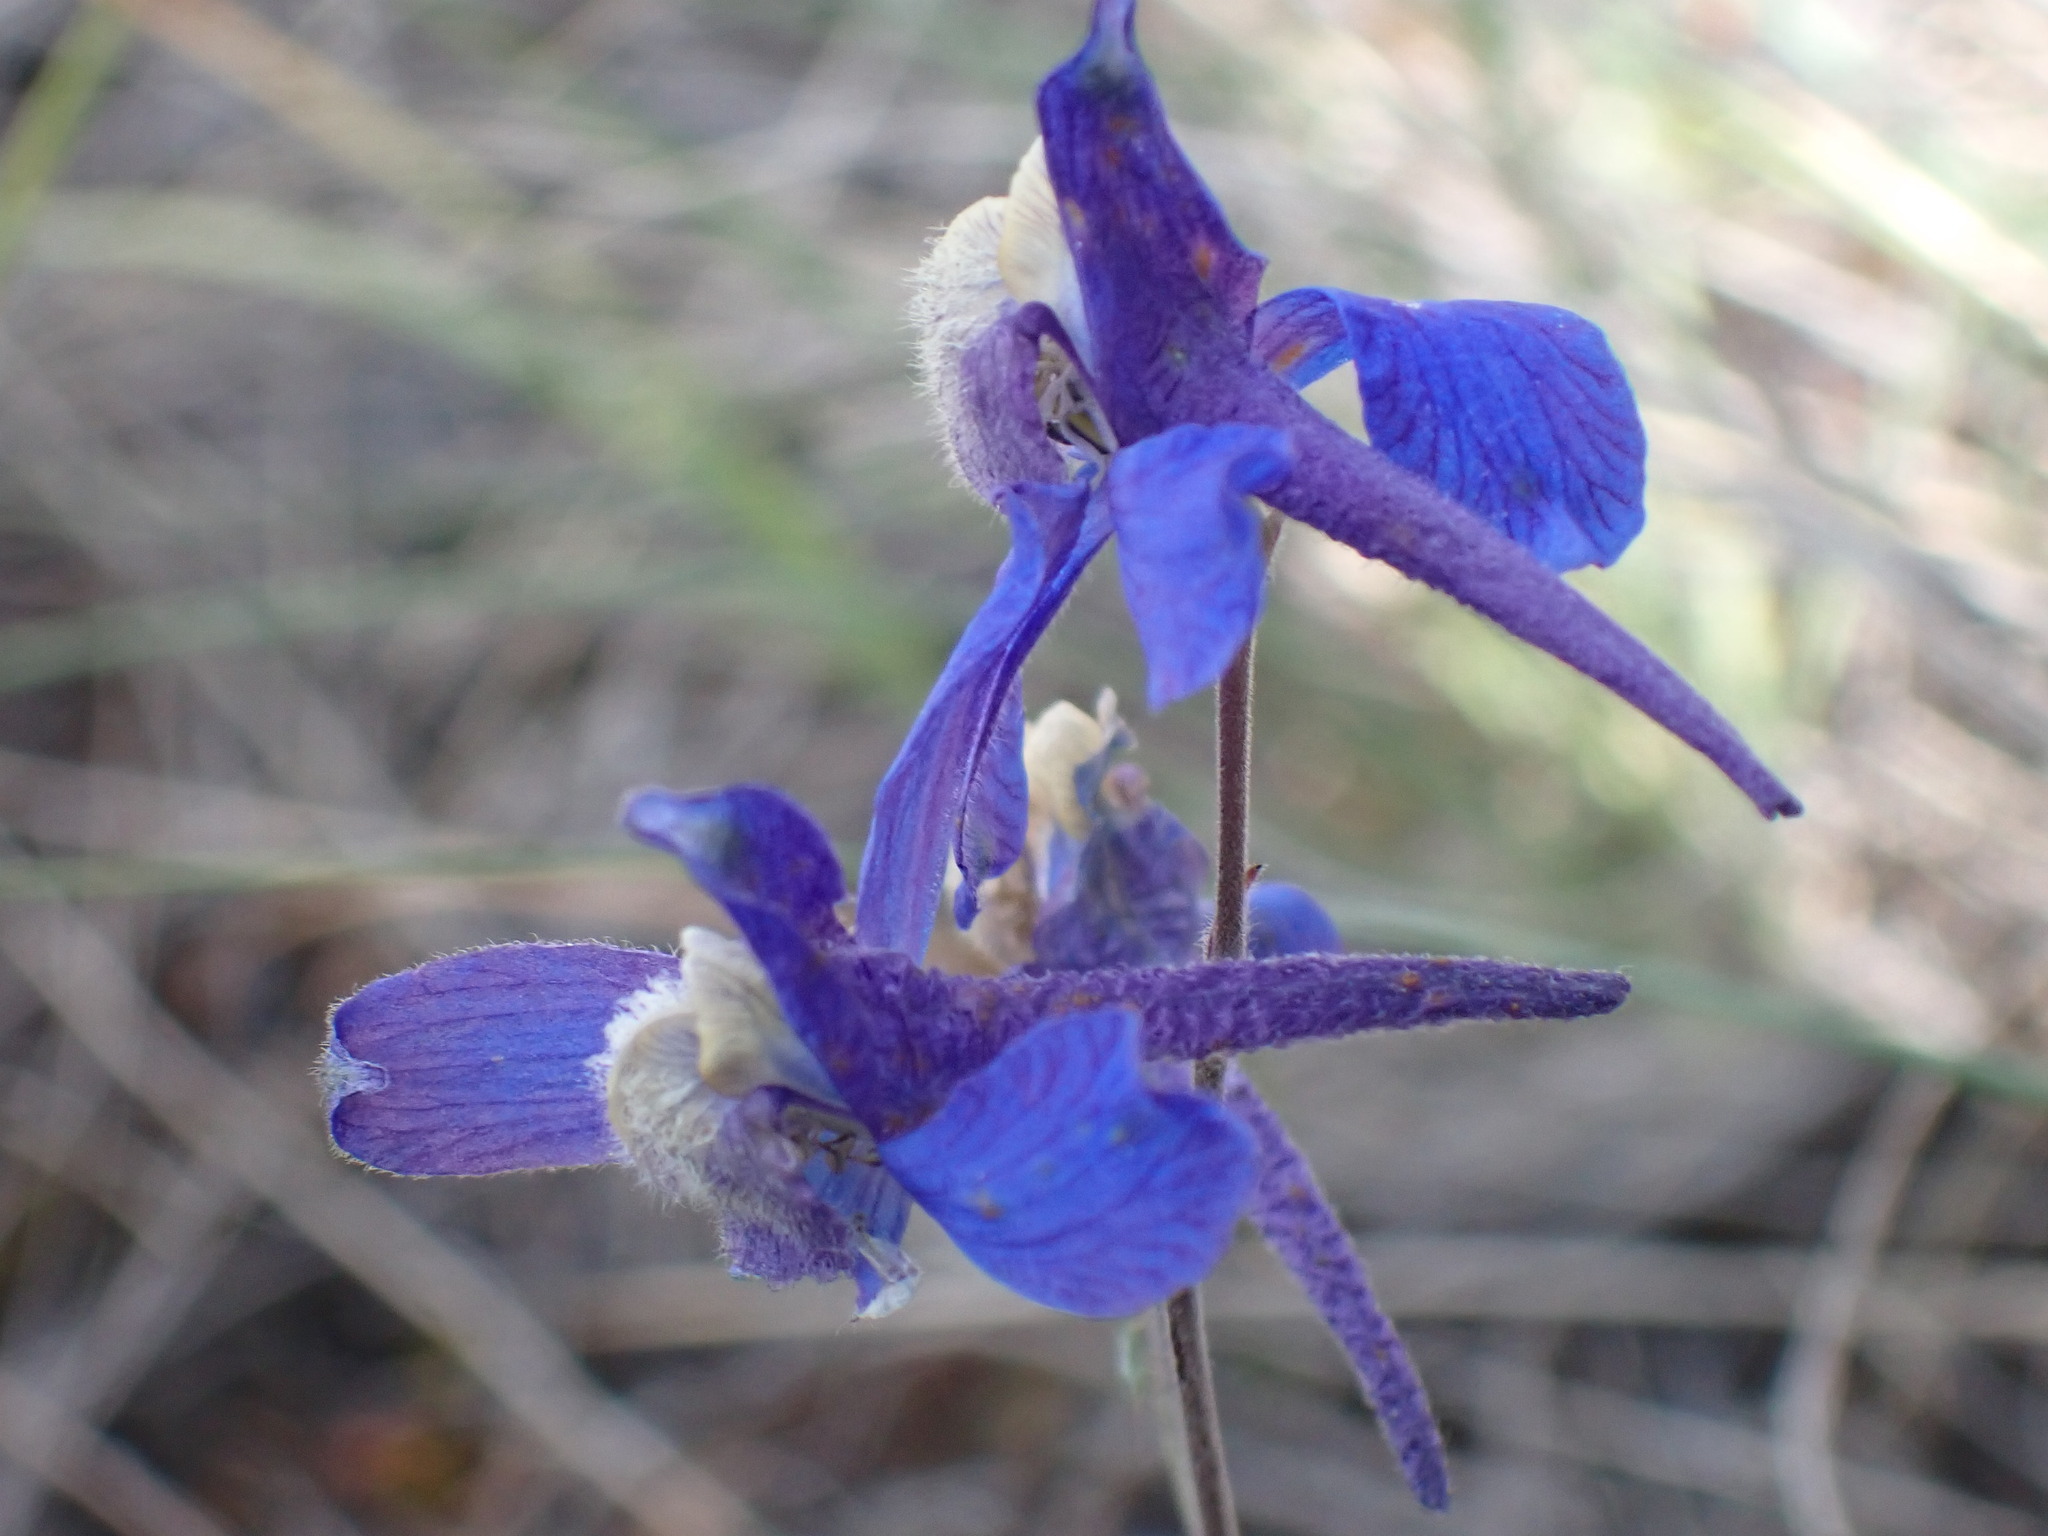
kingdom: Plantae
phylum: Tracheophyta
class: Magnoliopsida
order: Ranunculales
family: Ranunculaceae
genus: Delphinium
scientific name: Delphinium sutherlandii
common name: Sutherland's larkspur
